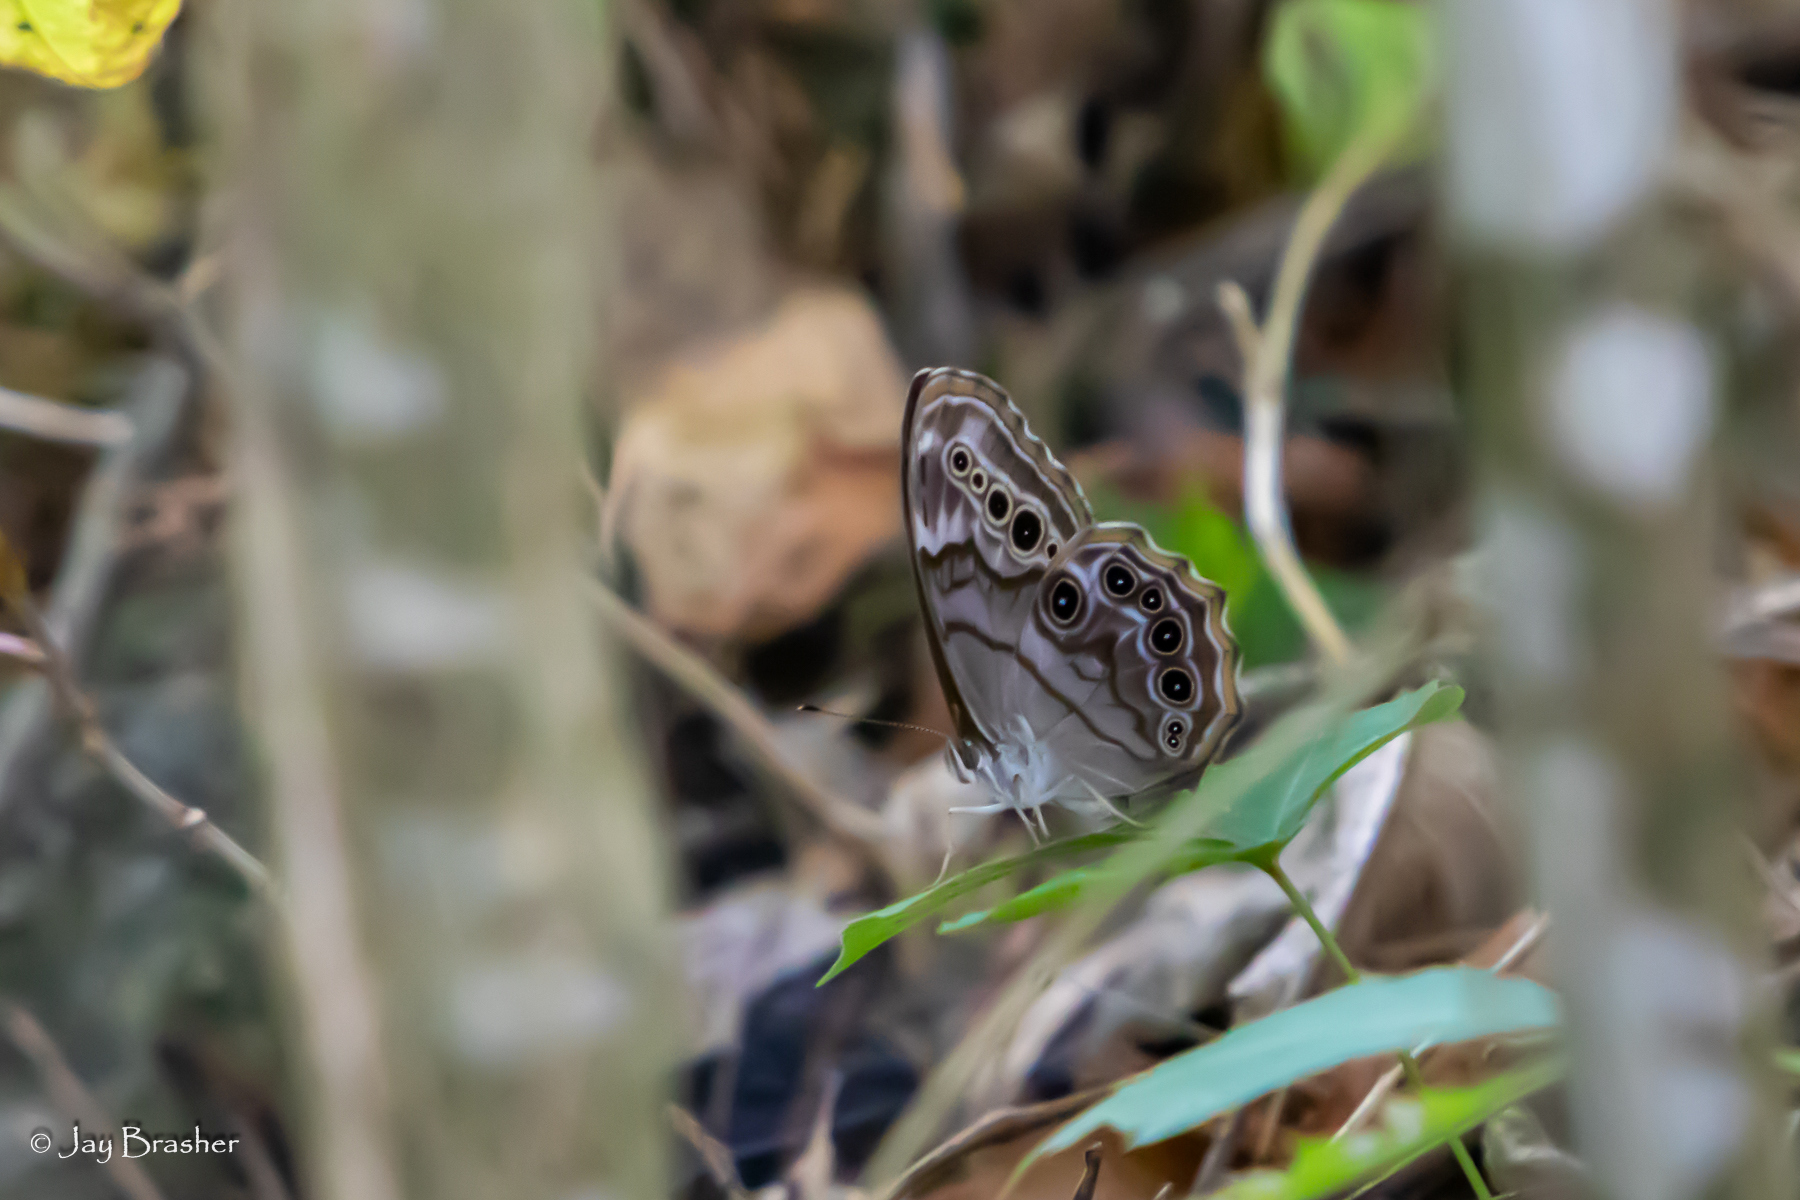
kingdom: Animalia
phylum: Arthropoda
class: Insecta
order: Lepidoptera
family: Nymphalidae
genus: Lethe
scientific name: Lethe anthedon
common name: Northern pearly-eye
